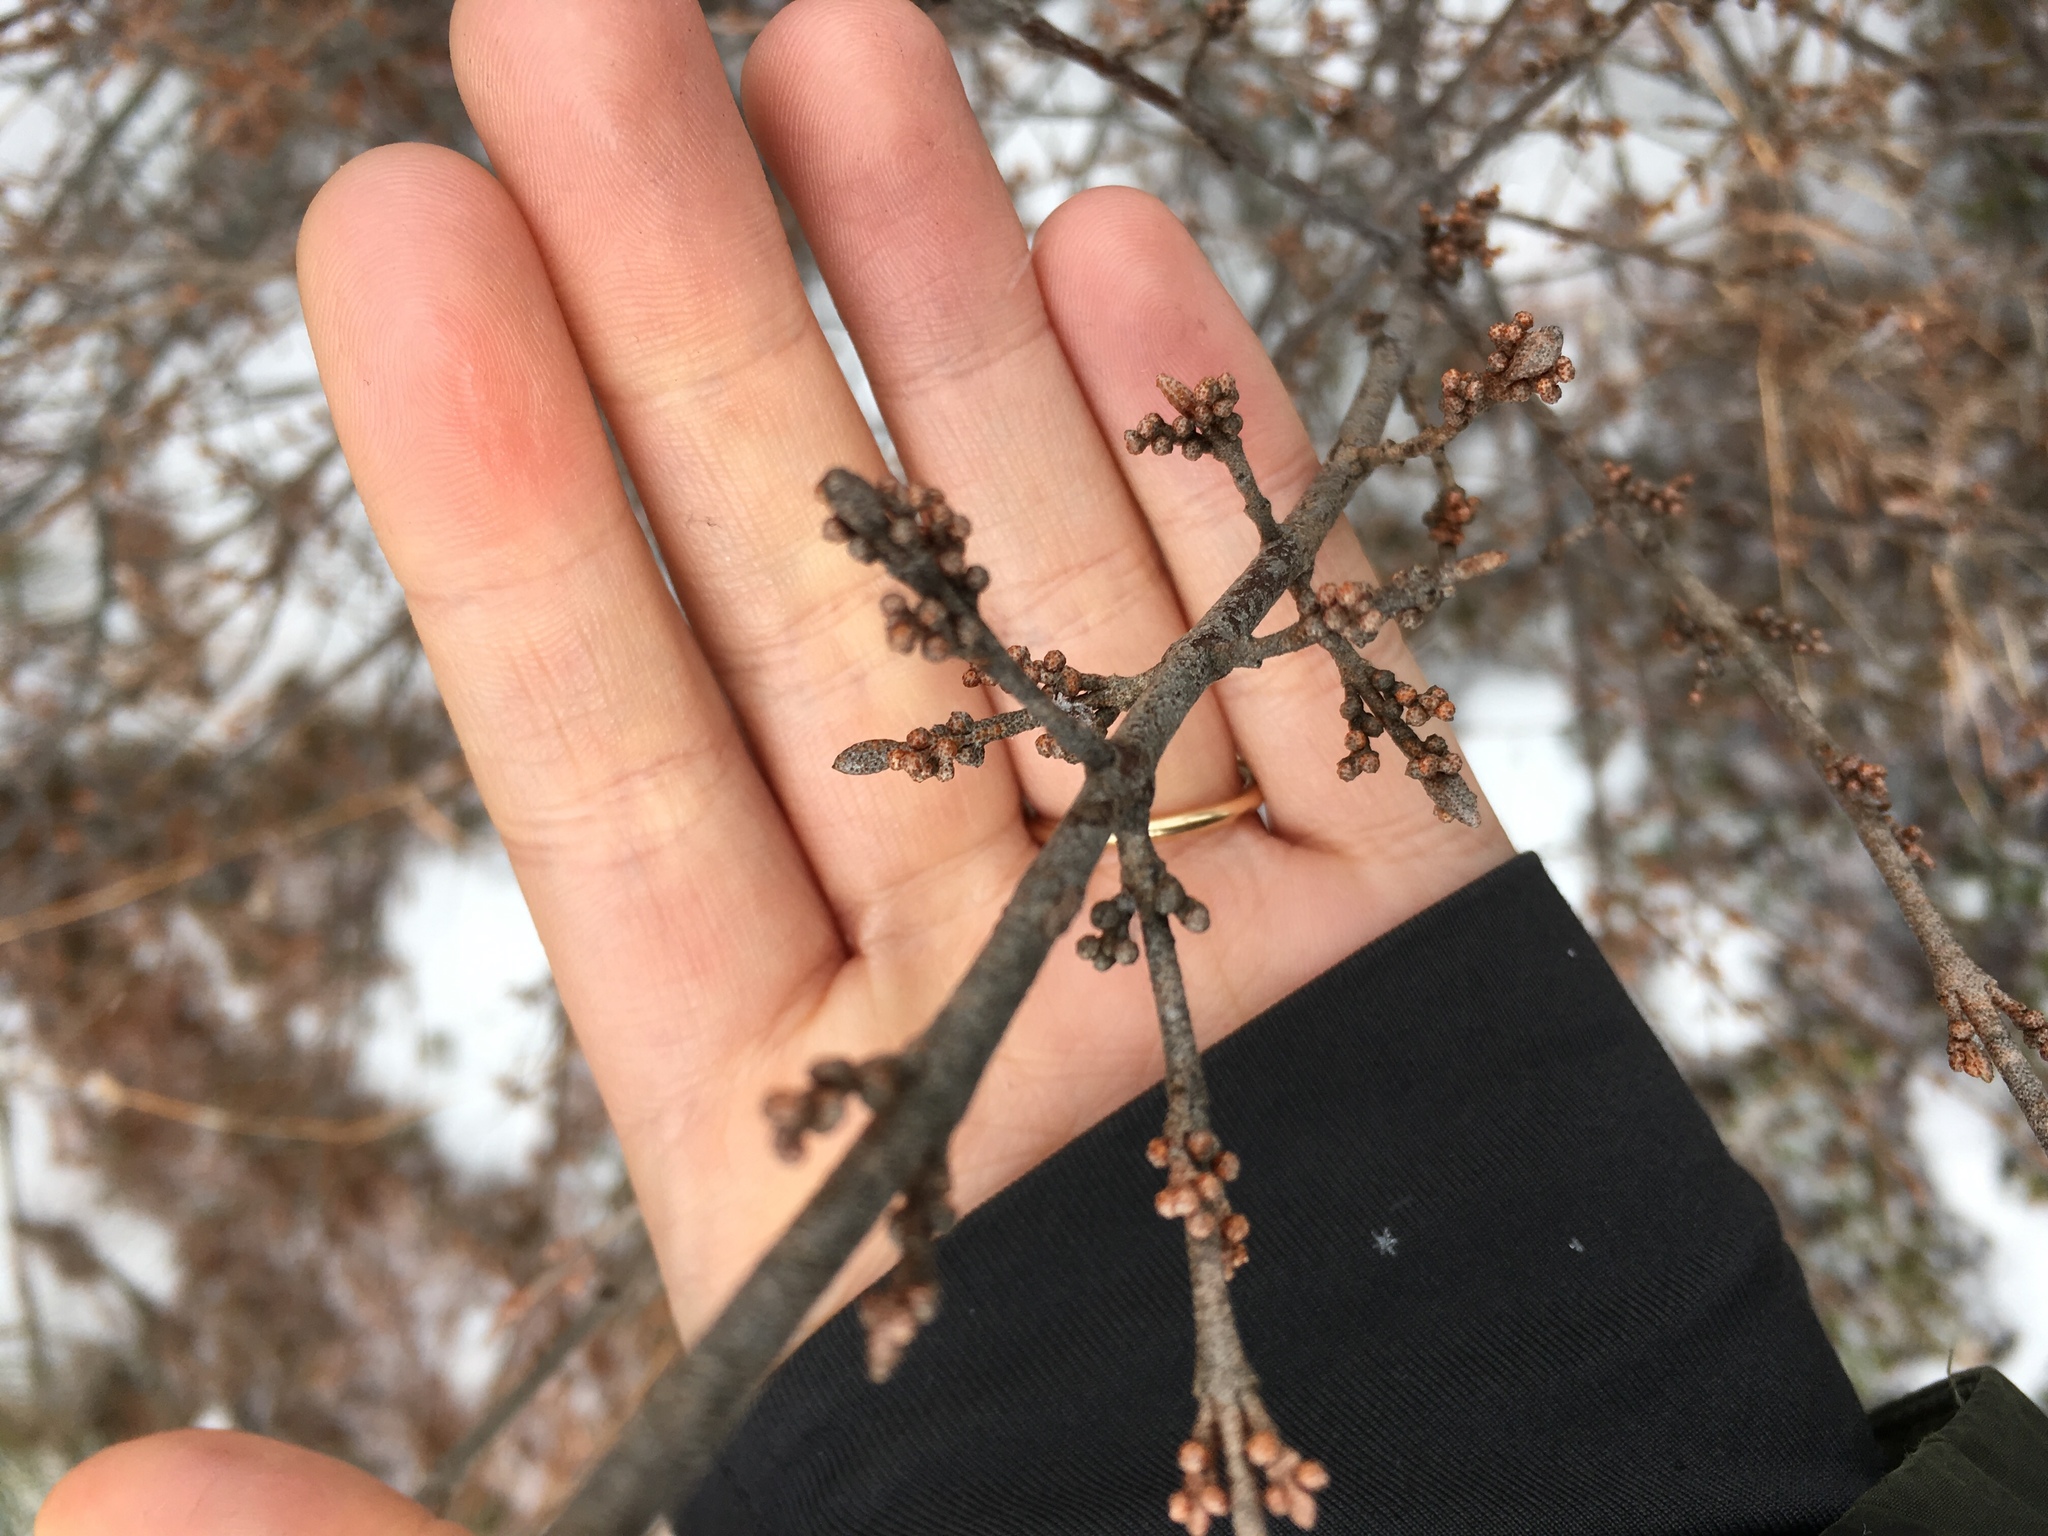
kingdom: Plantae
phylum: Tracheophyta
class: Magnoliopsida
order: Rosales
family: Elaeagnaceae
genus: Shepherdia
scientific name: Shepherdia canadensis
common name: Soapberry
